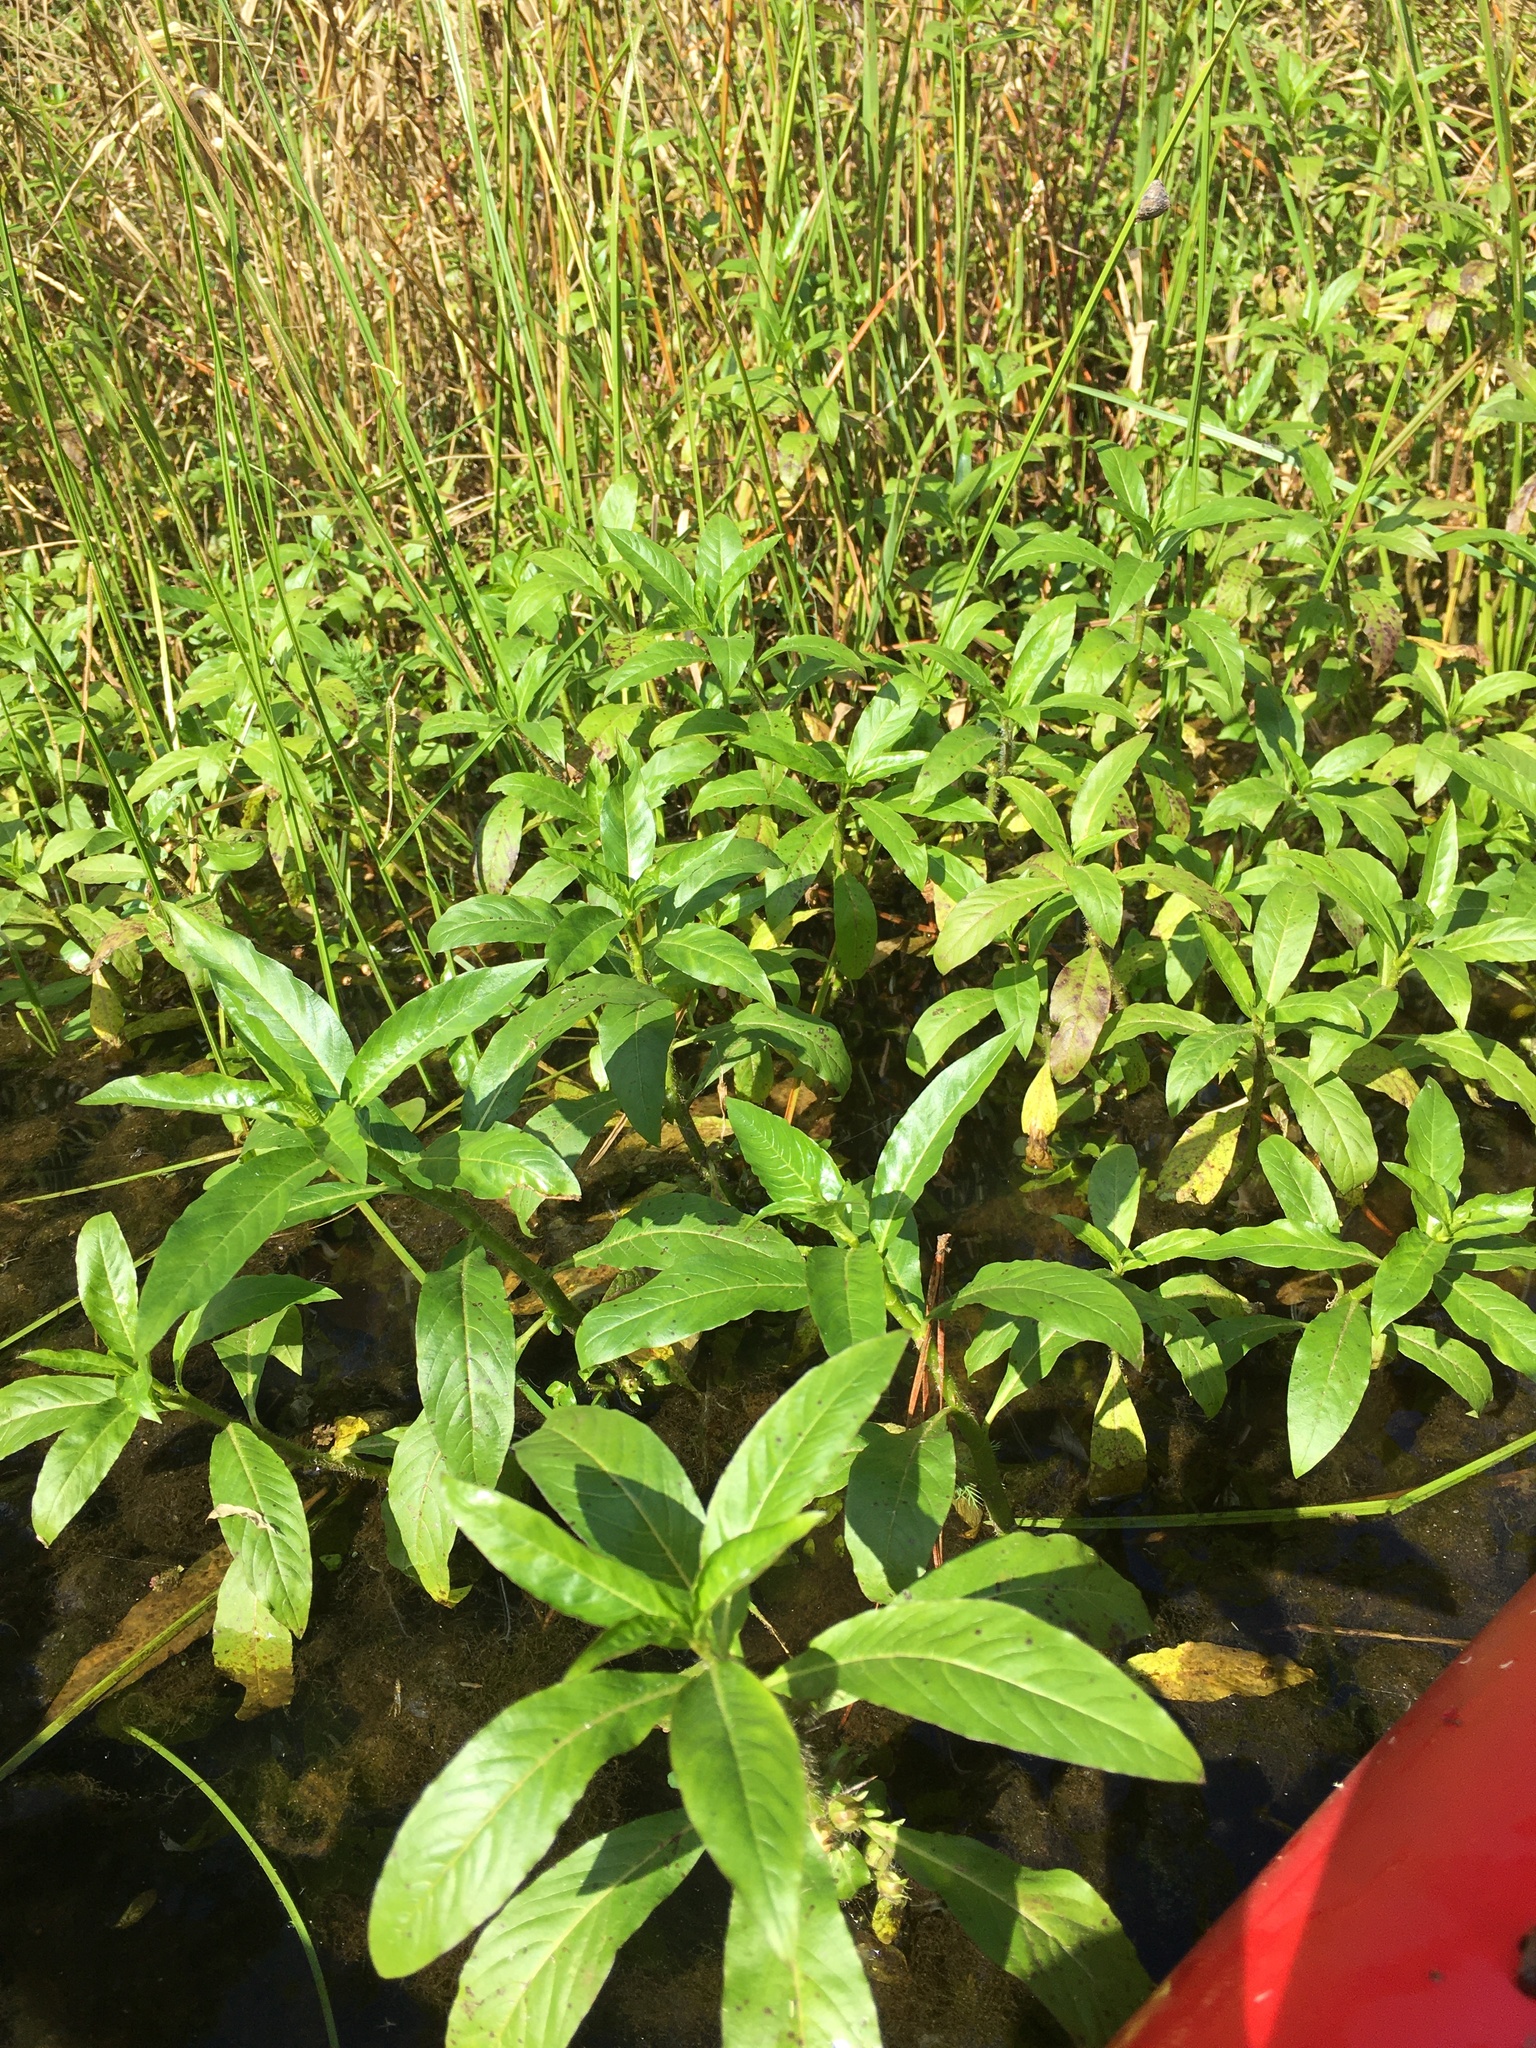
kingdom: Plantae
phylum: Tracheophyta
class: Magnoliopsida
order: Solanales
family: Hydroleaceae
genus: Hydrolea
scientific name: Hydrolea quadrivalvis
